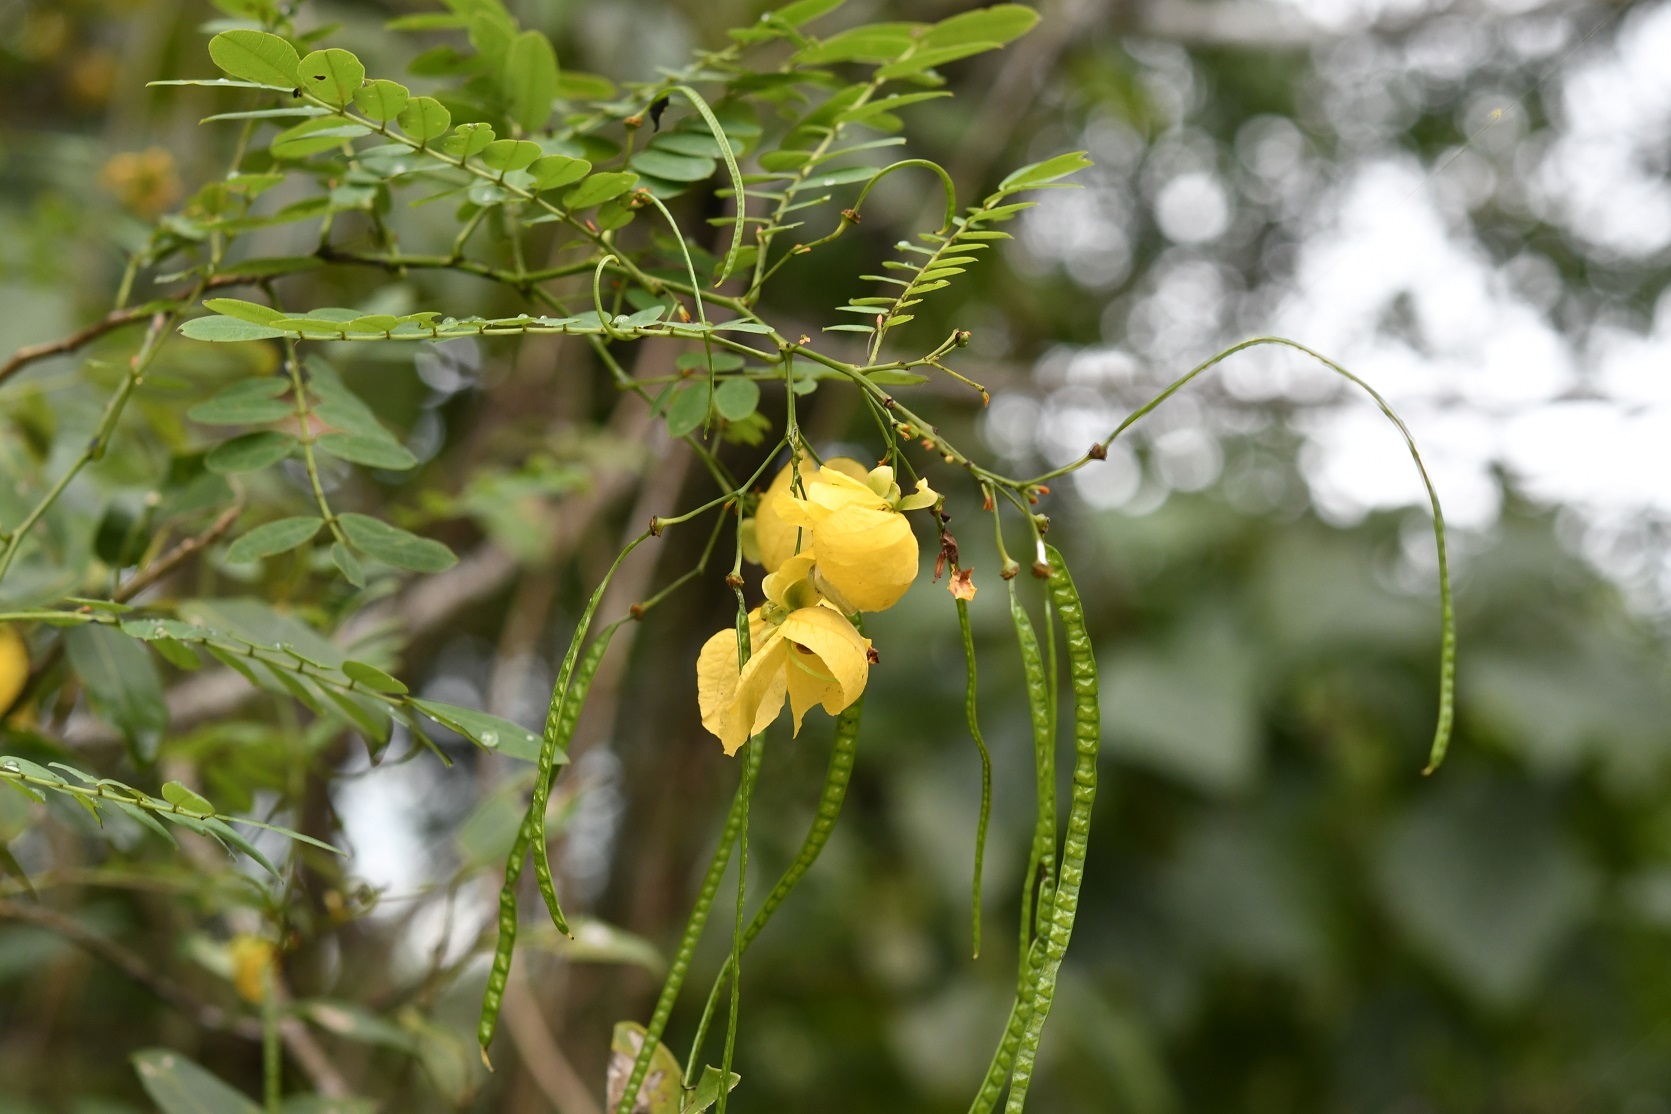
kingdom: Plantae
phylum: Tracheophyta
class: Magnoliopsida
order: Fabales
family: Fabaceae
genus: Senna
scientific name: Senna pallida
